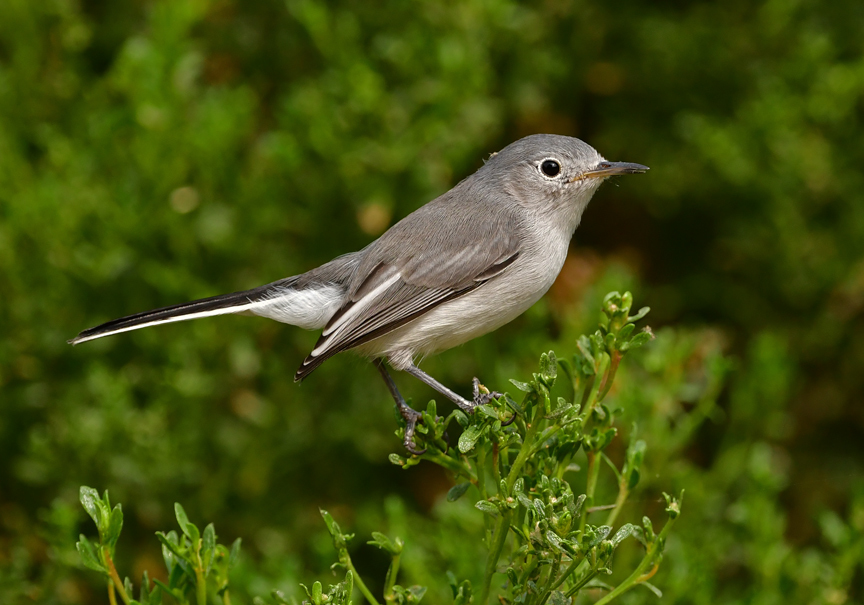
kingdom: Animalia
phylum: Chordata
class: Aves
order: Passeriformes
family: Polioptilidae
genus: Polioptila
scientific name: Polioptila caerulea
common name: Blue-gray gnatcatcher
